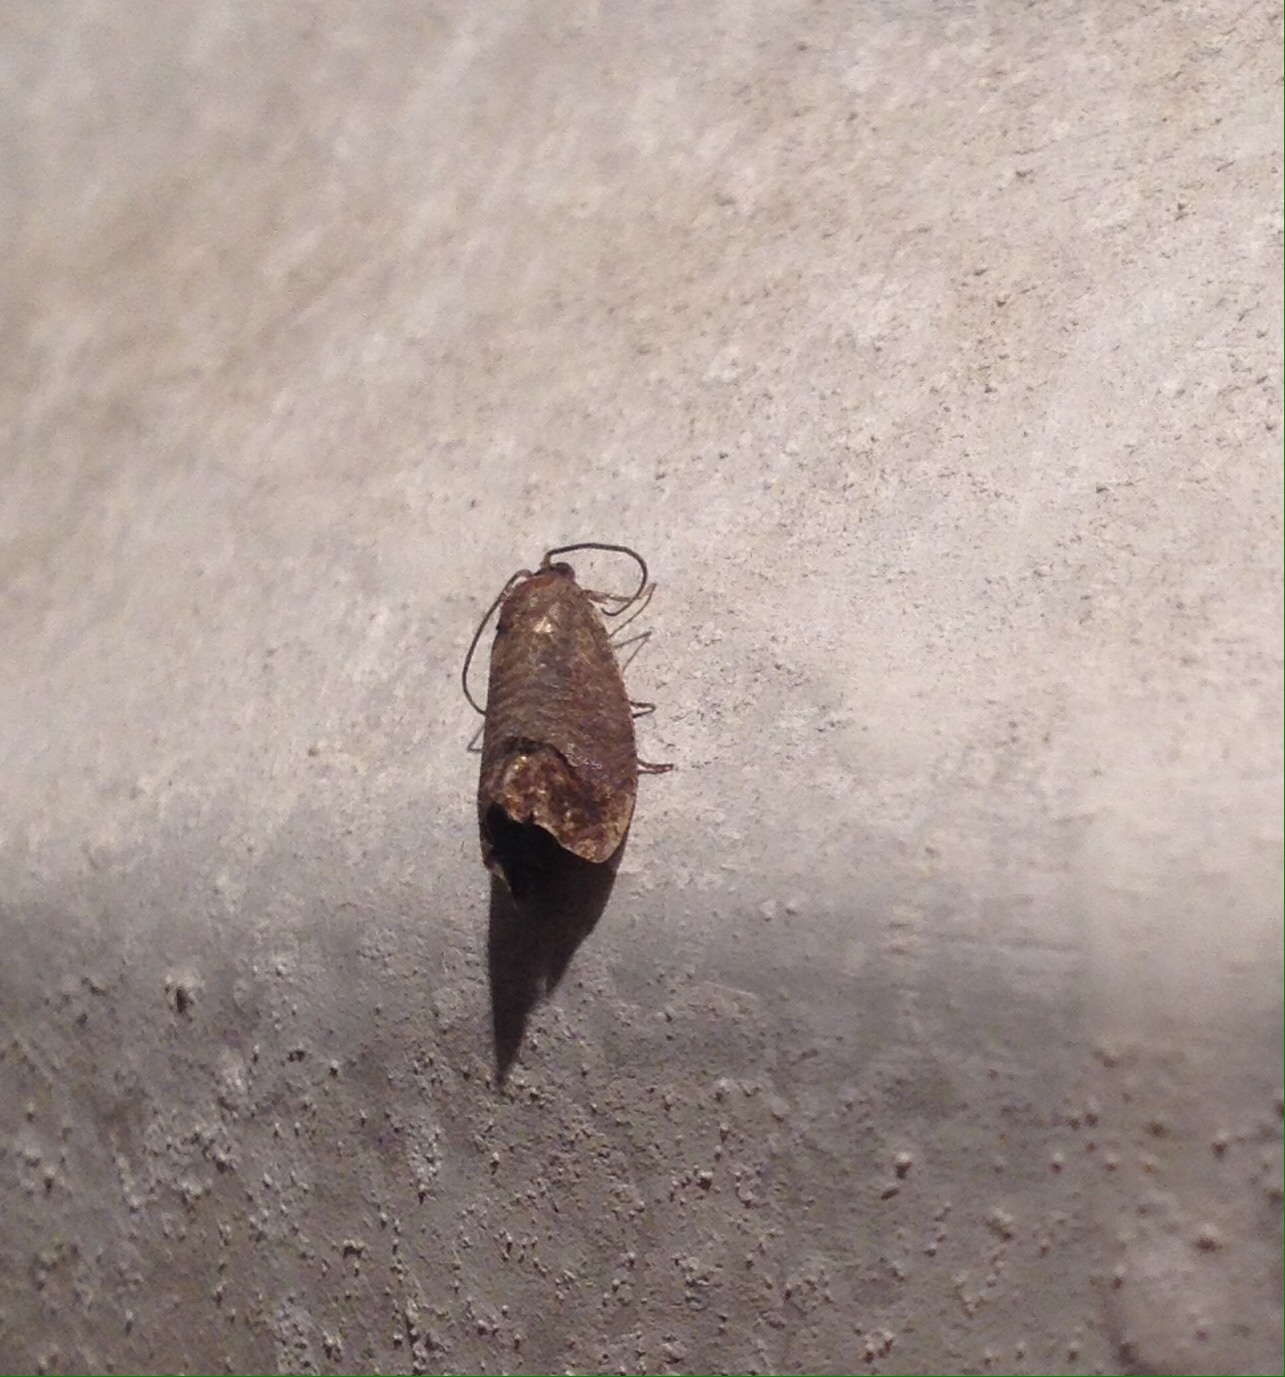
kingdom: Animalia
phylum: Arthropoda
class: Insecta
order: Lepidoptera
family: Tortricidae
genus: Cydia
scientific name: Cydia pomonella
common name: Codling moth
